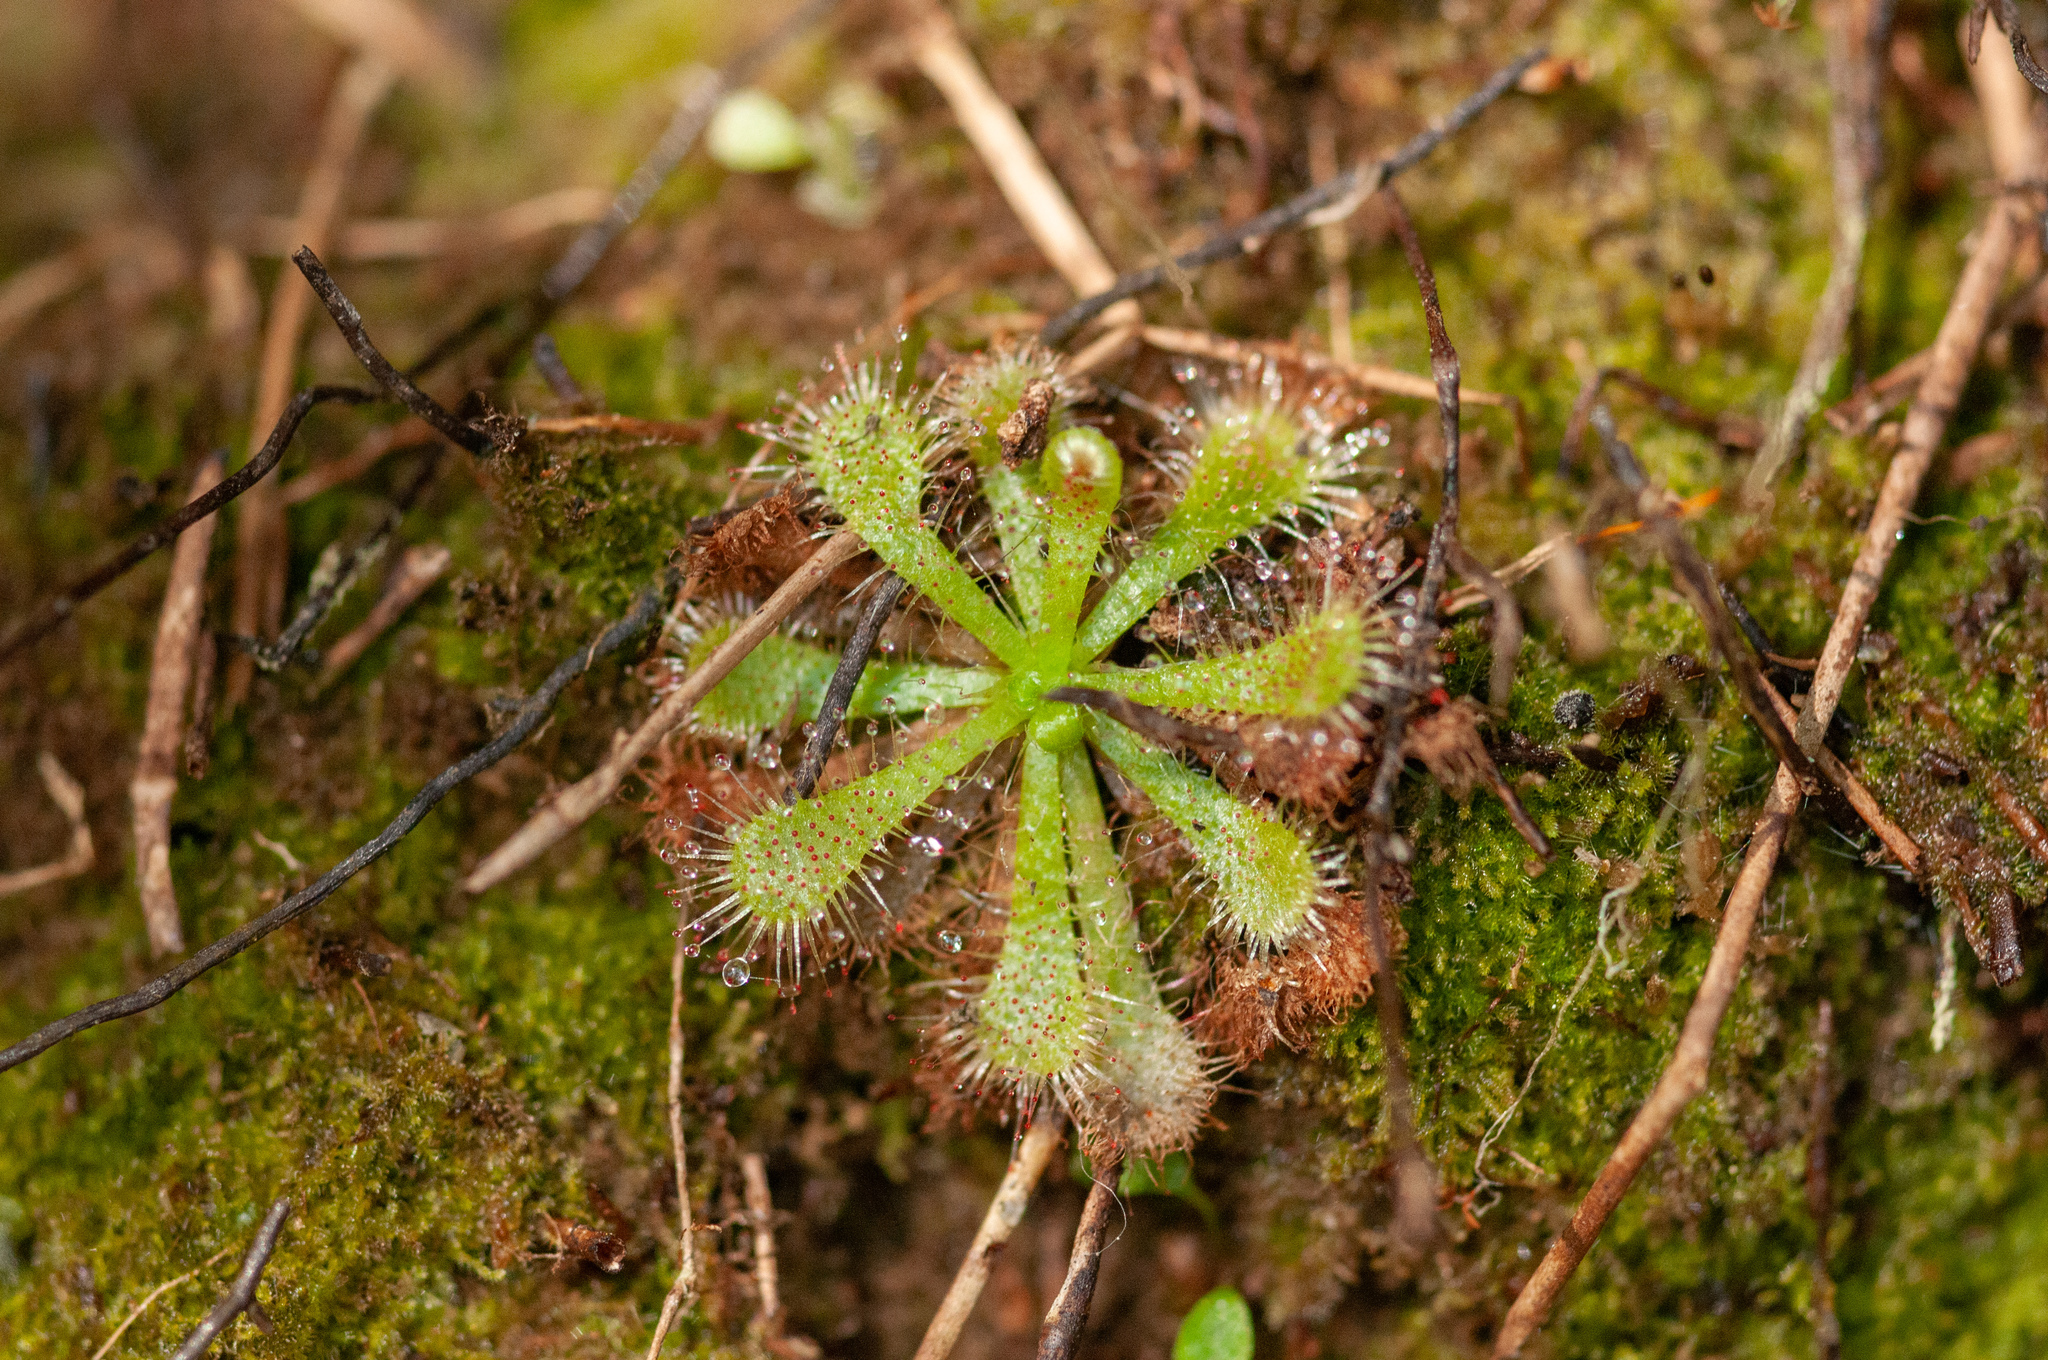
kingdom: Plantae
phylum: Tracheophyta
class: Magnoliopsida
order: Caryophyllales
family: Droseraceae
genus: Drosera
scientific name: Drosera spatulata
